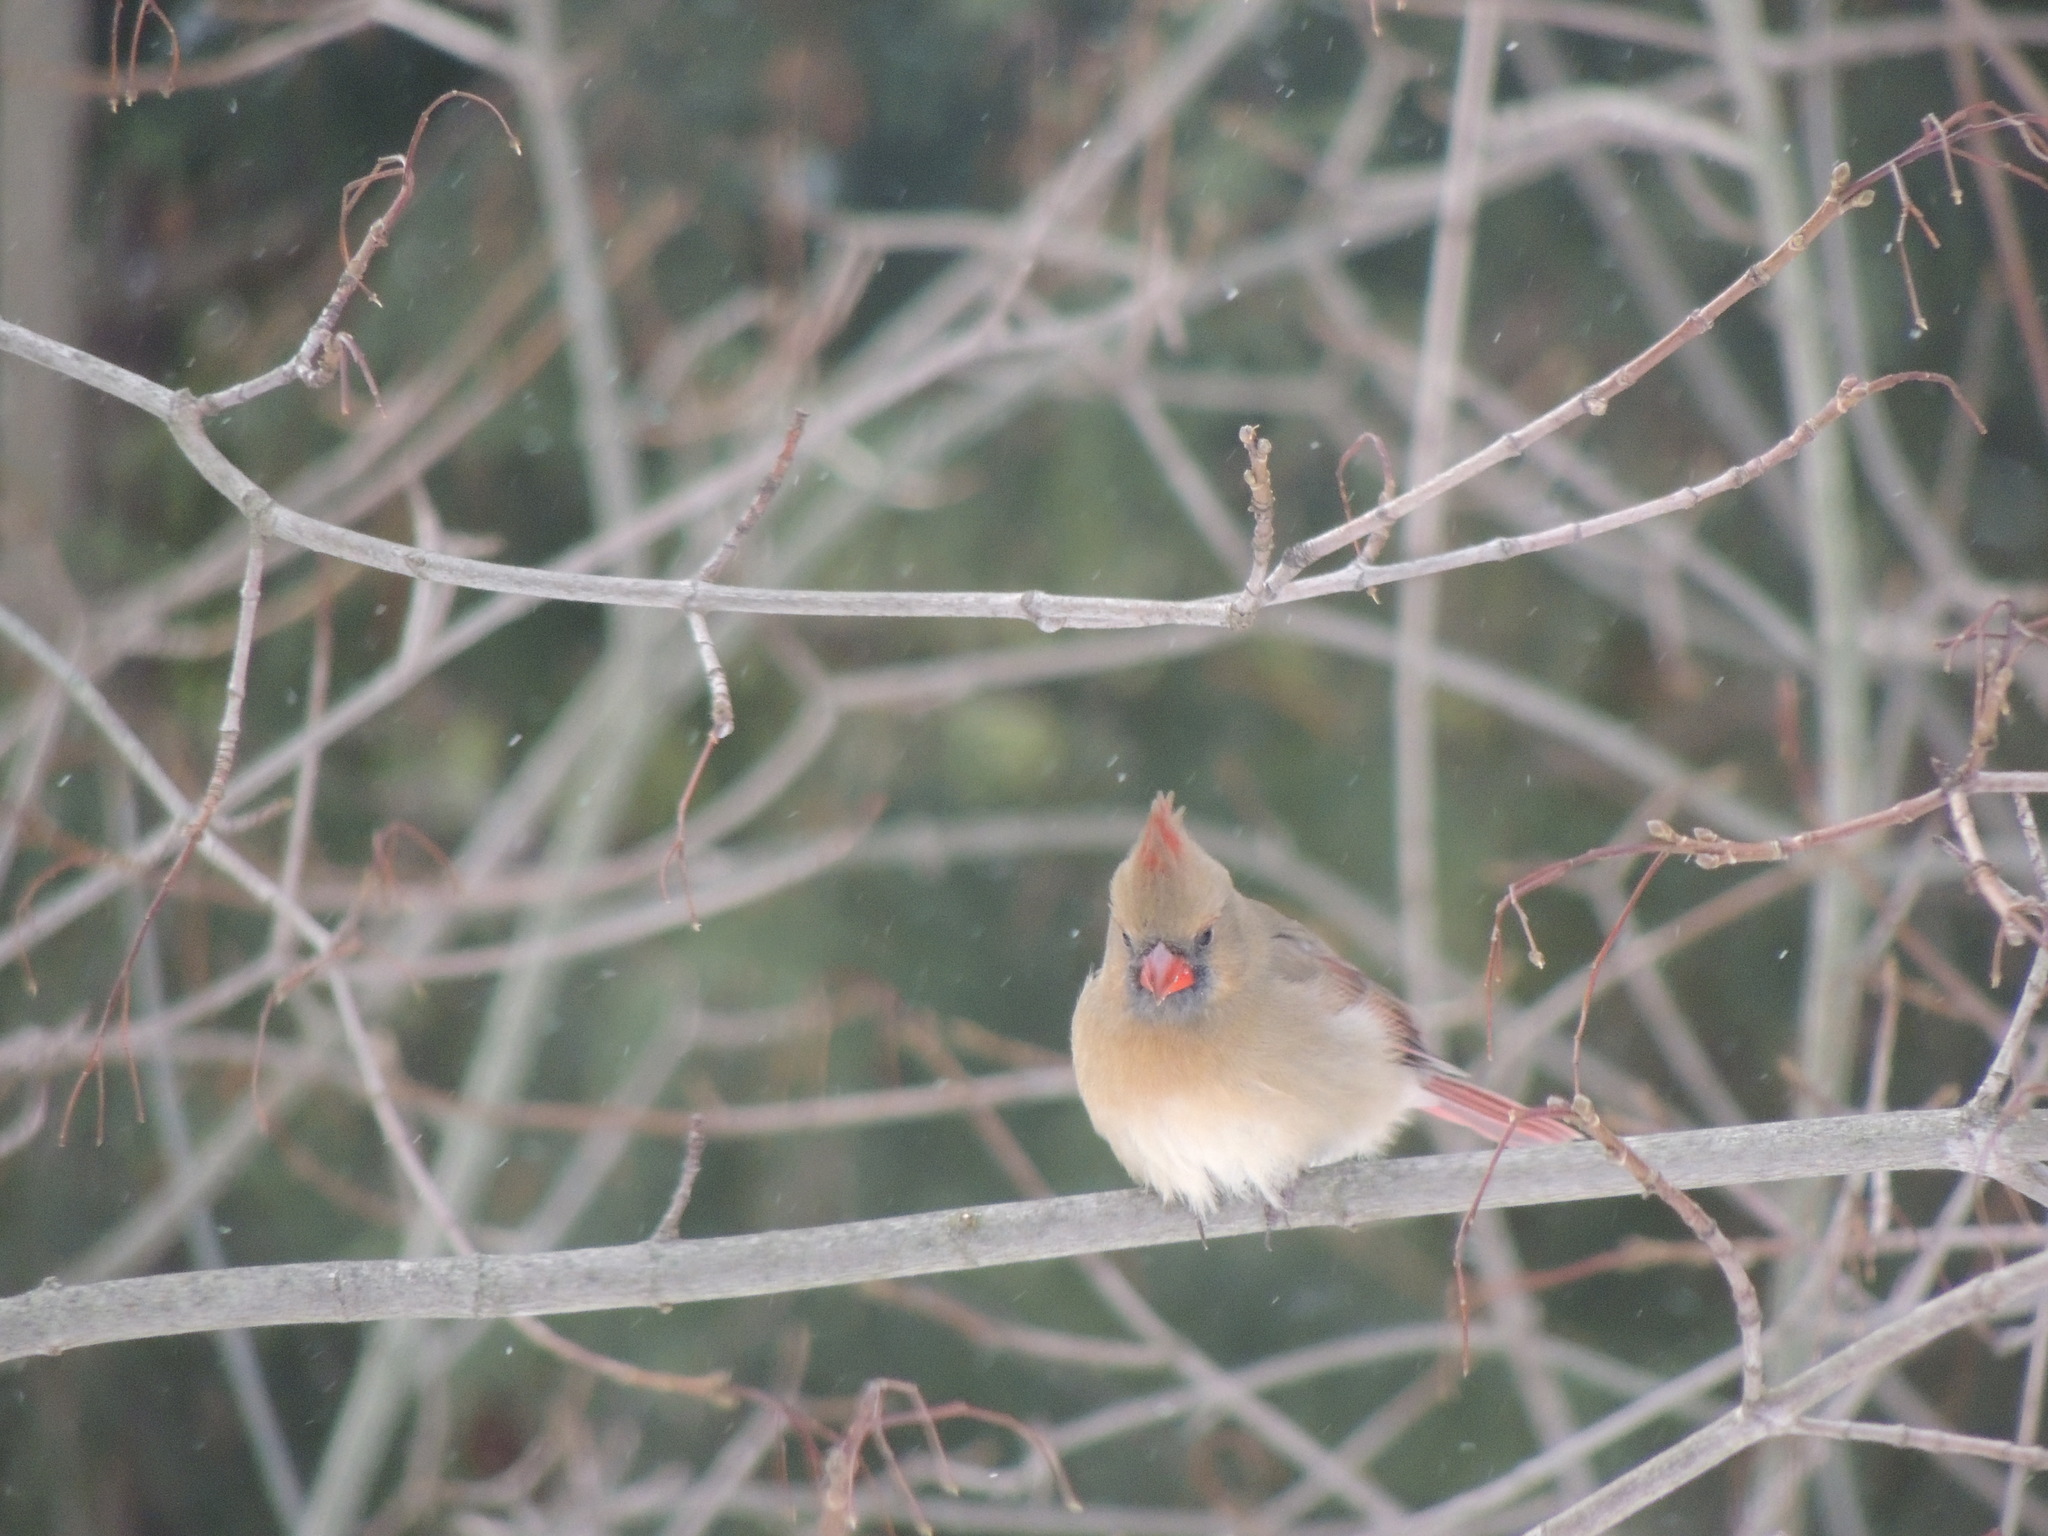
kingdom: Animalia
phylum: Chordata
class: Aves
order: Passeriformes
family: Cardinalidae
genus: Cardinalis
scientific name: Cardinalis cardinalis
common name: Northern cardinal
